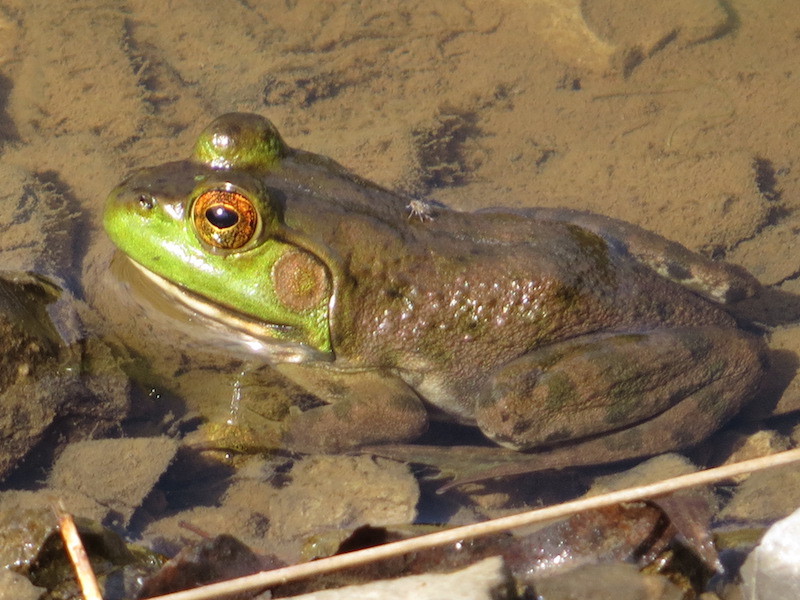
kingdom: Animalia
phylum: Chordata
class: Amphibia
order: Anura
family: Ranidae
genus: Lithobates
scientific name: Lithobates catesbeianus
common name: American bullfrog
